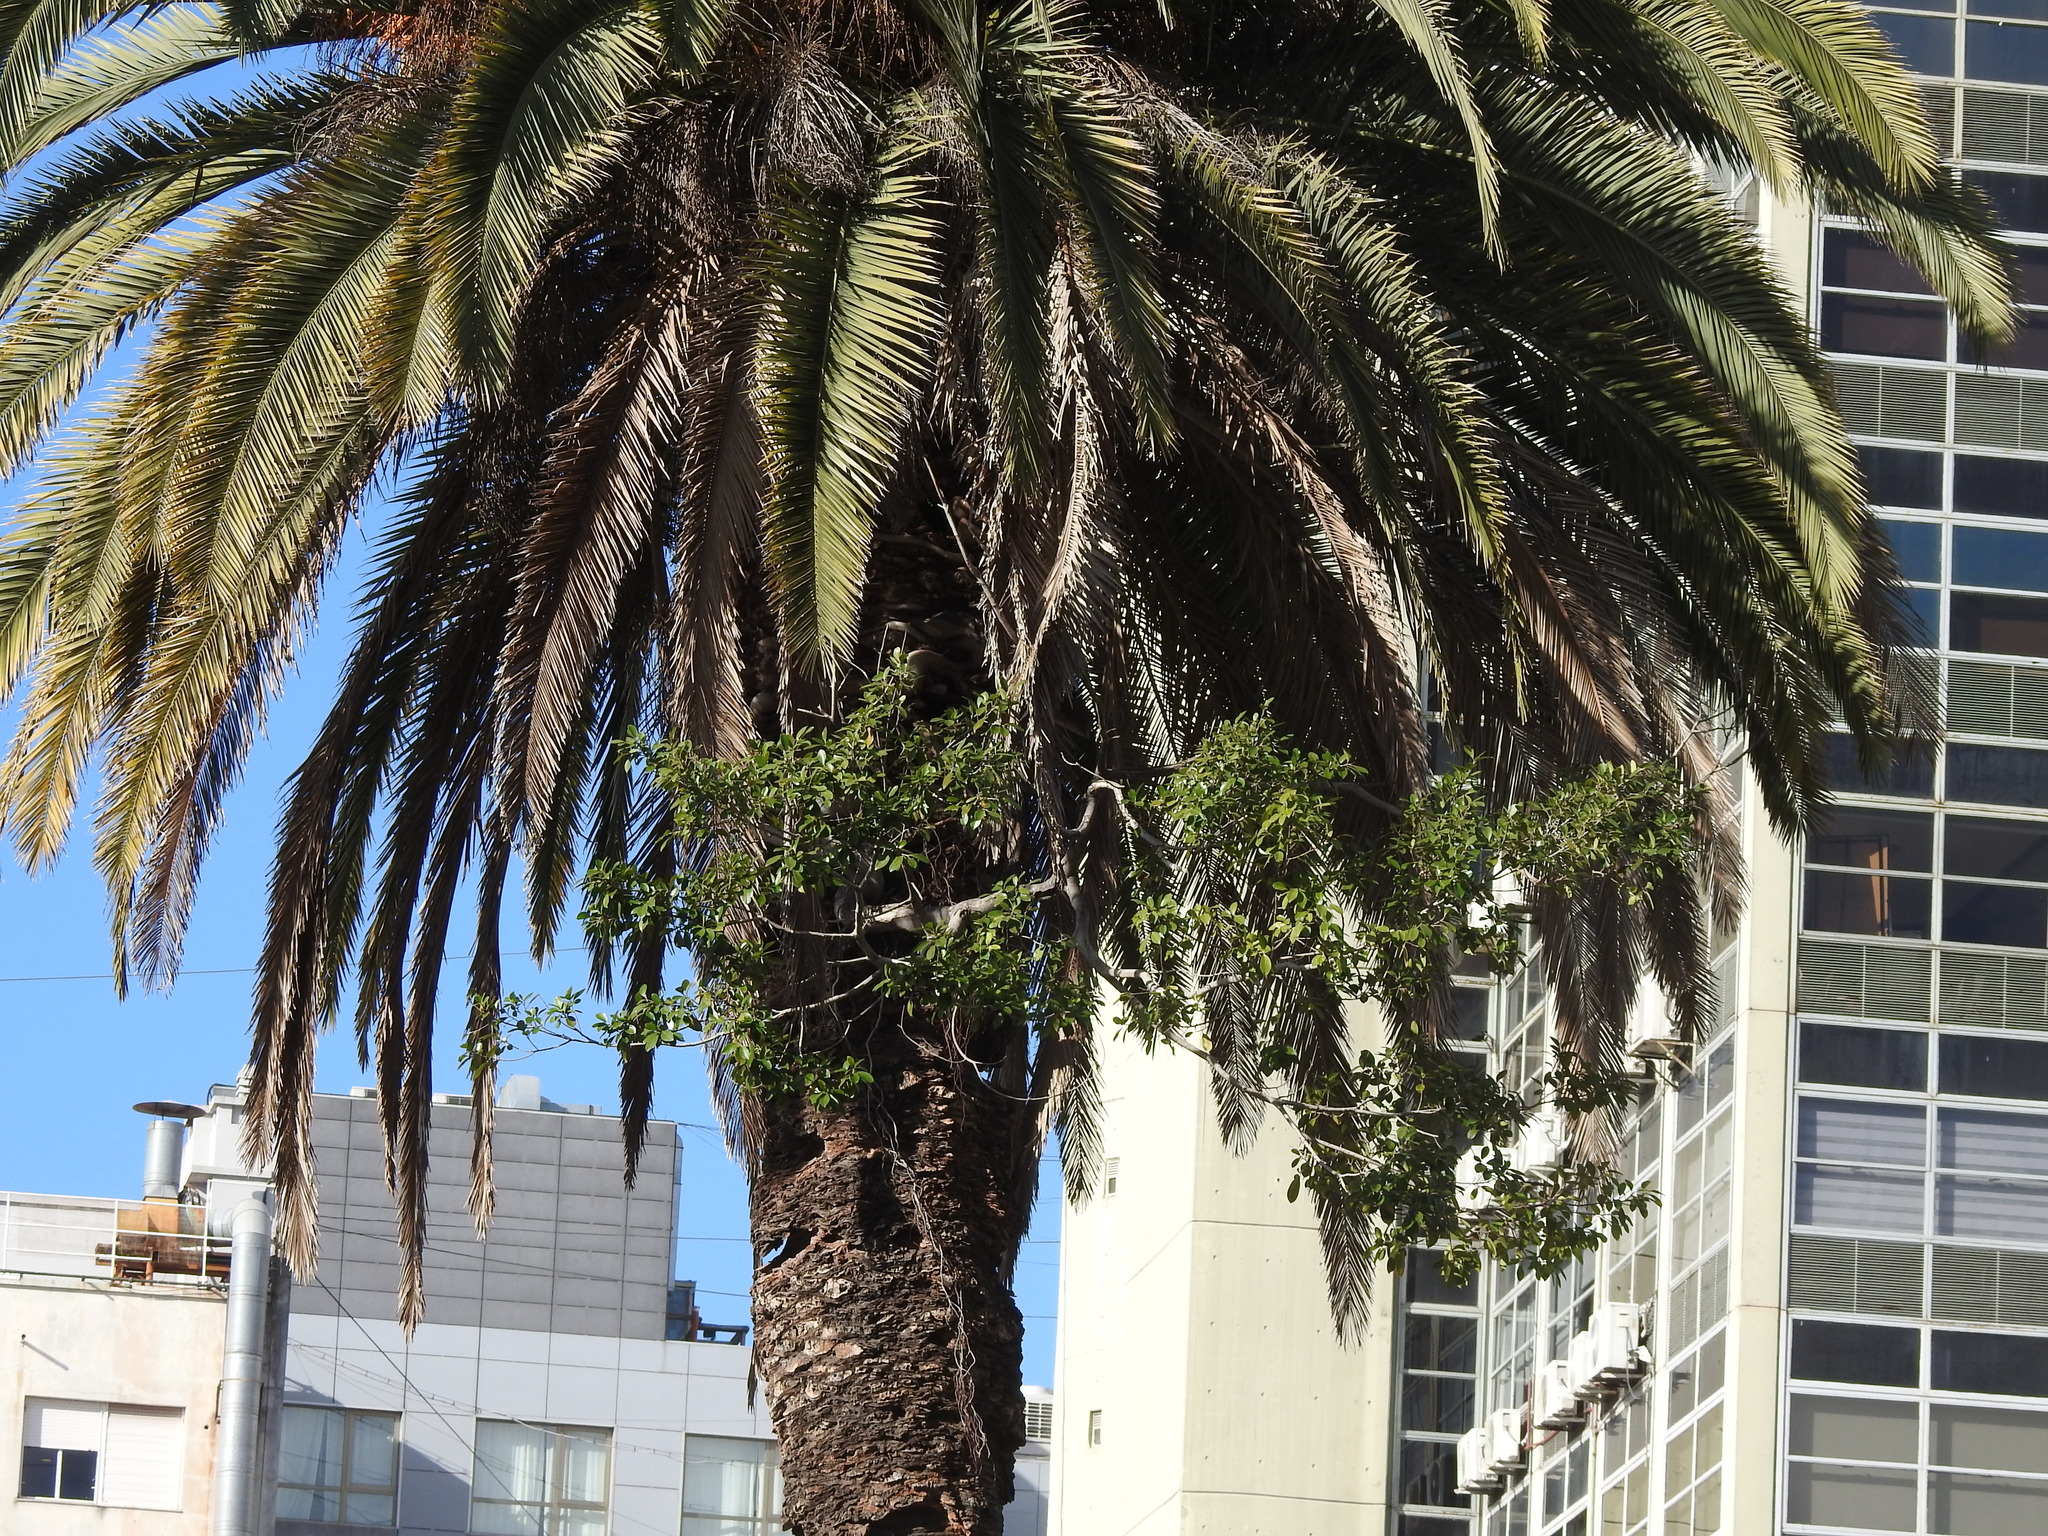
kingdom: Plantae
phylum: Tracheophyta
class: Magnoliopsida
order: Rosales
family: Moraceae
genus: Ficus
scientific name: Ficus luschnathiana
